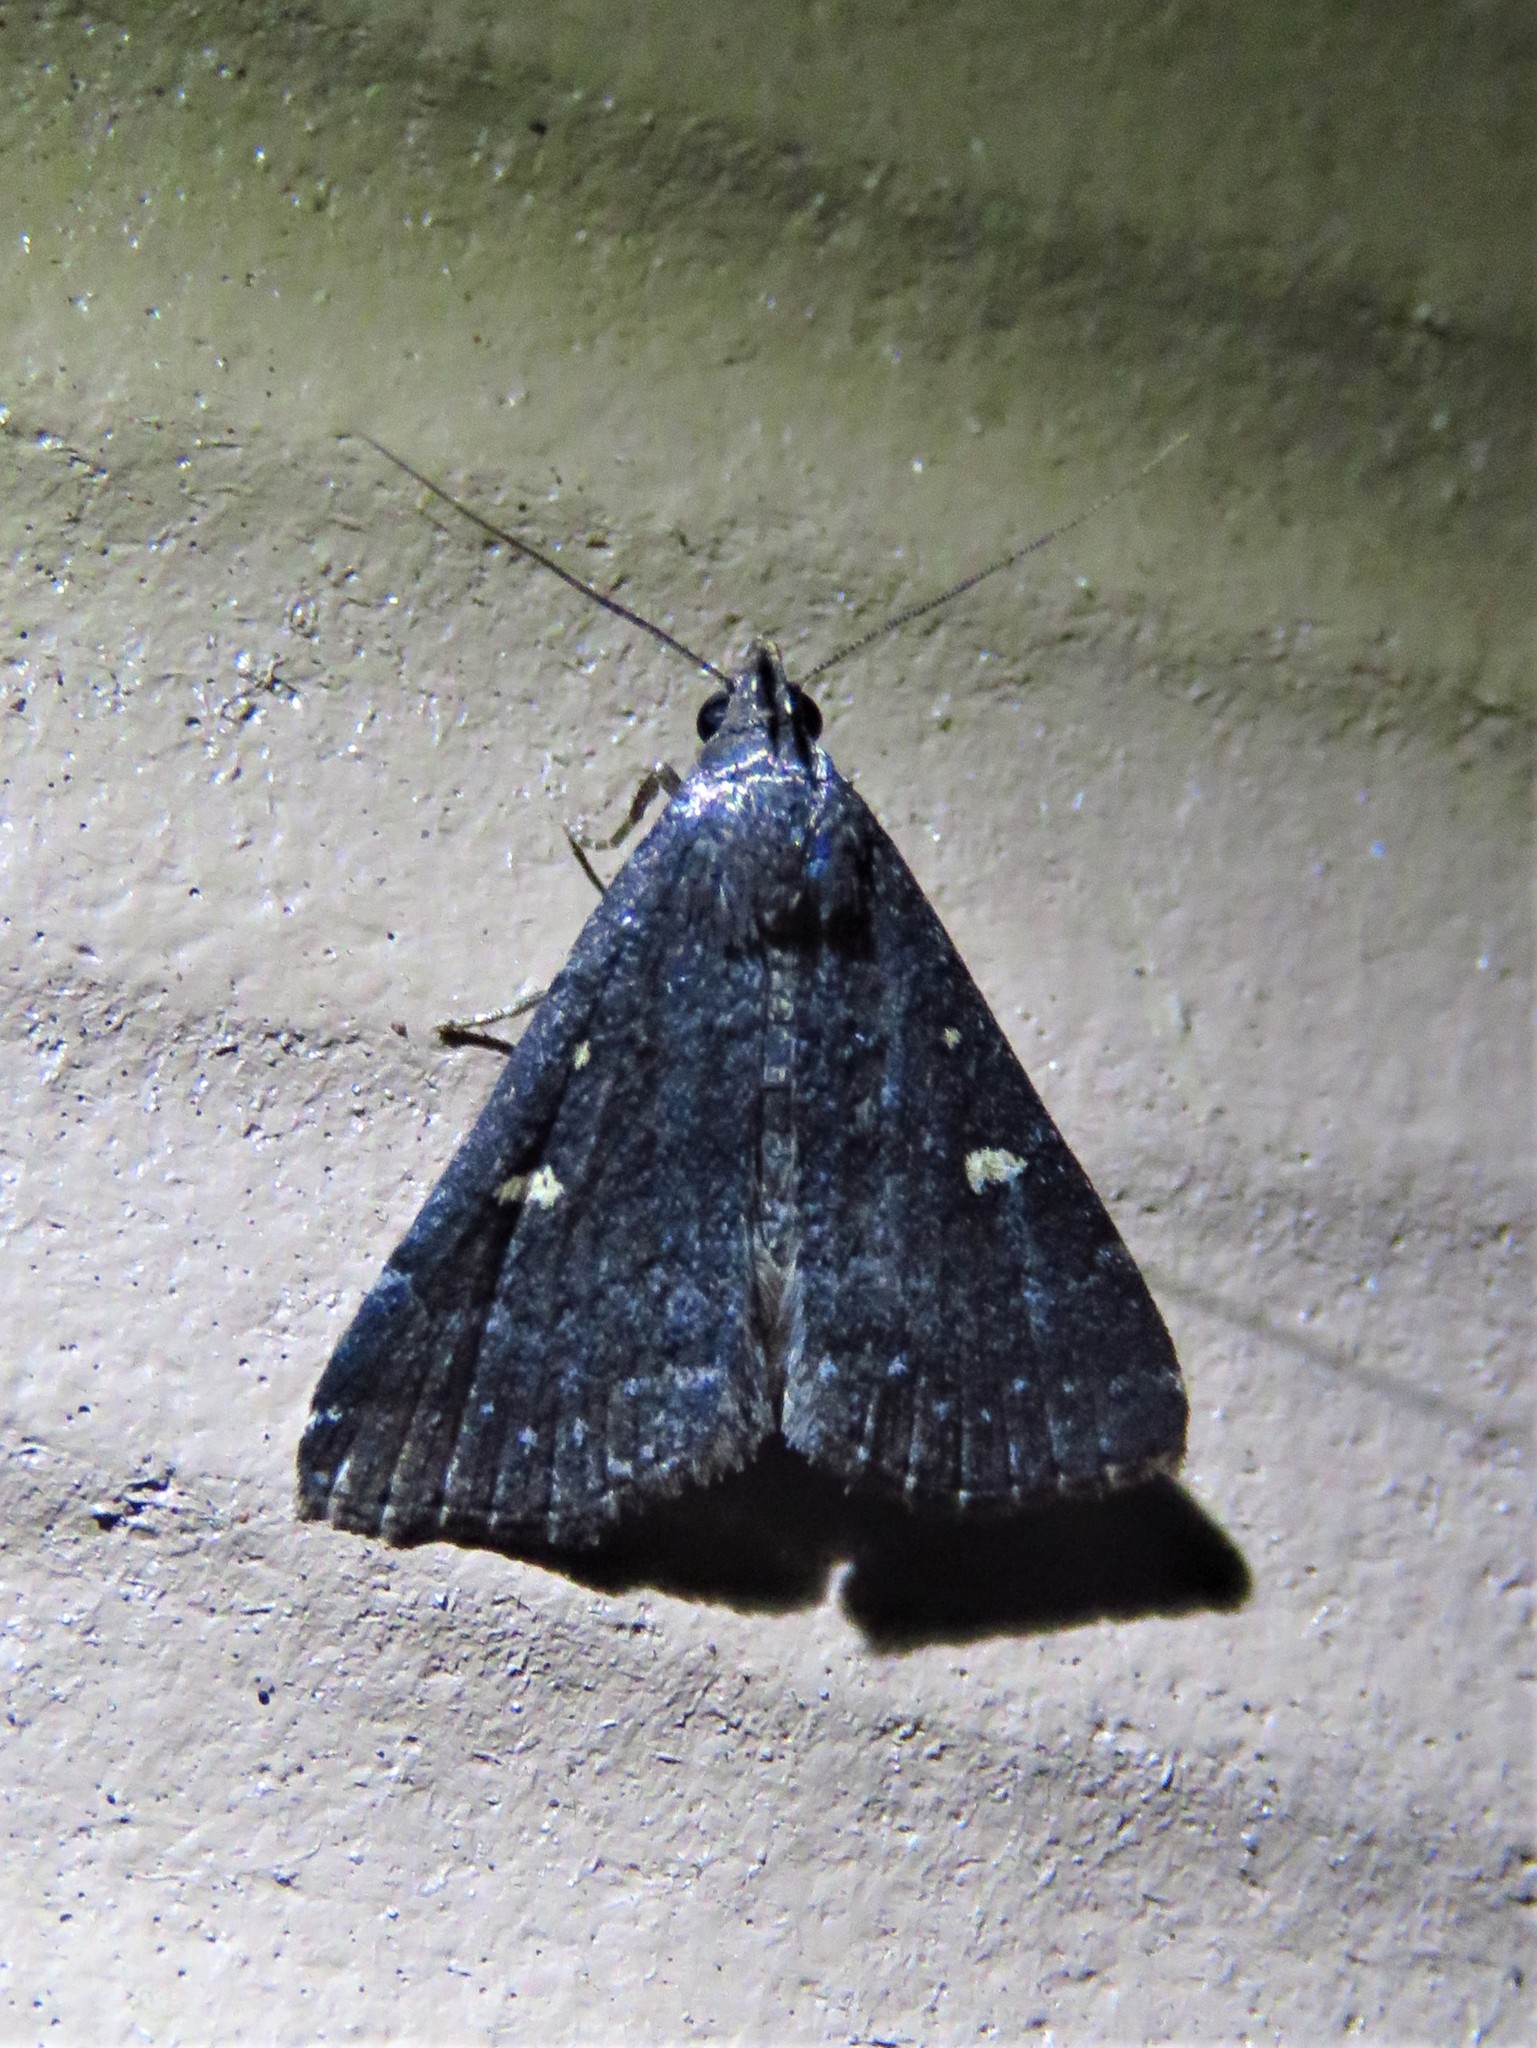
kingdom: Animalia
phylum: Arthropoda
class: Insecta
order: Lepidoptera
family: Erebidae
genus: Tetanolita
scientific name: Tetanolita mynesalis
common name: Smoky tetanolita moth
